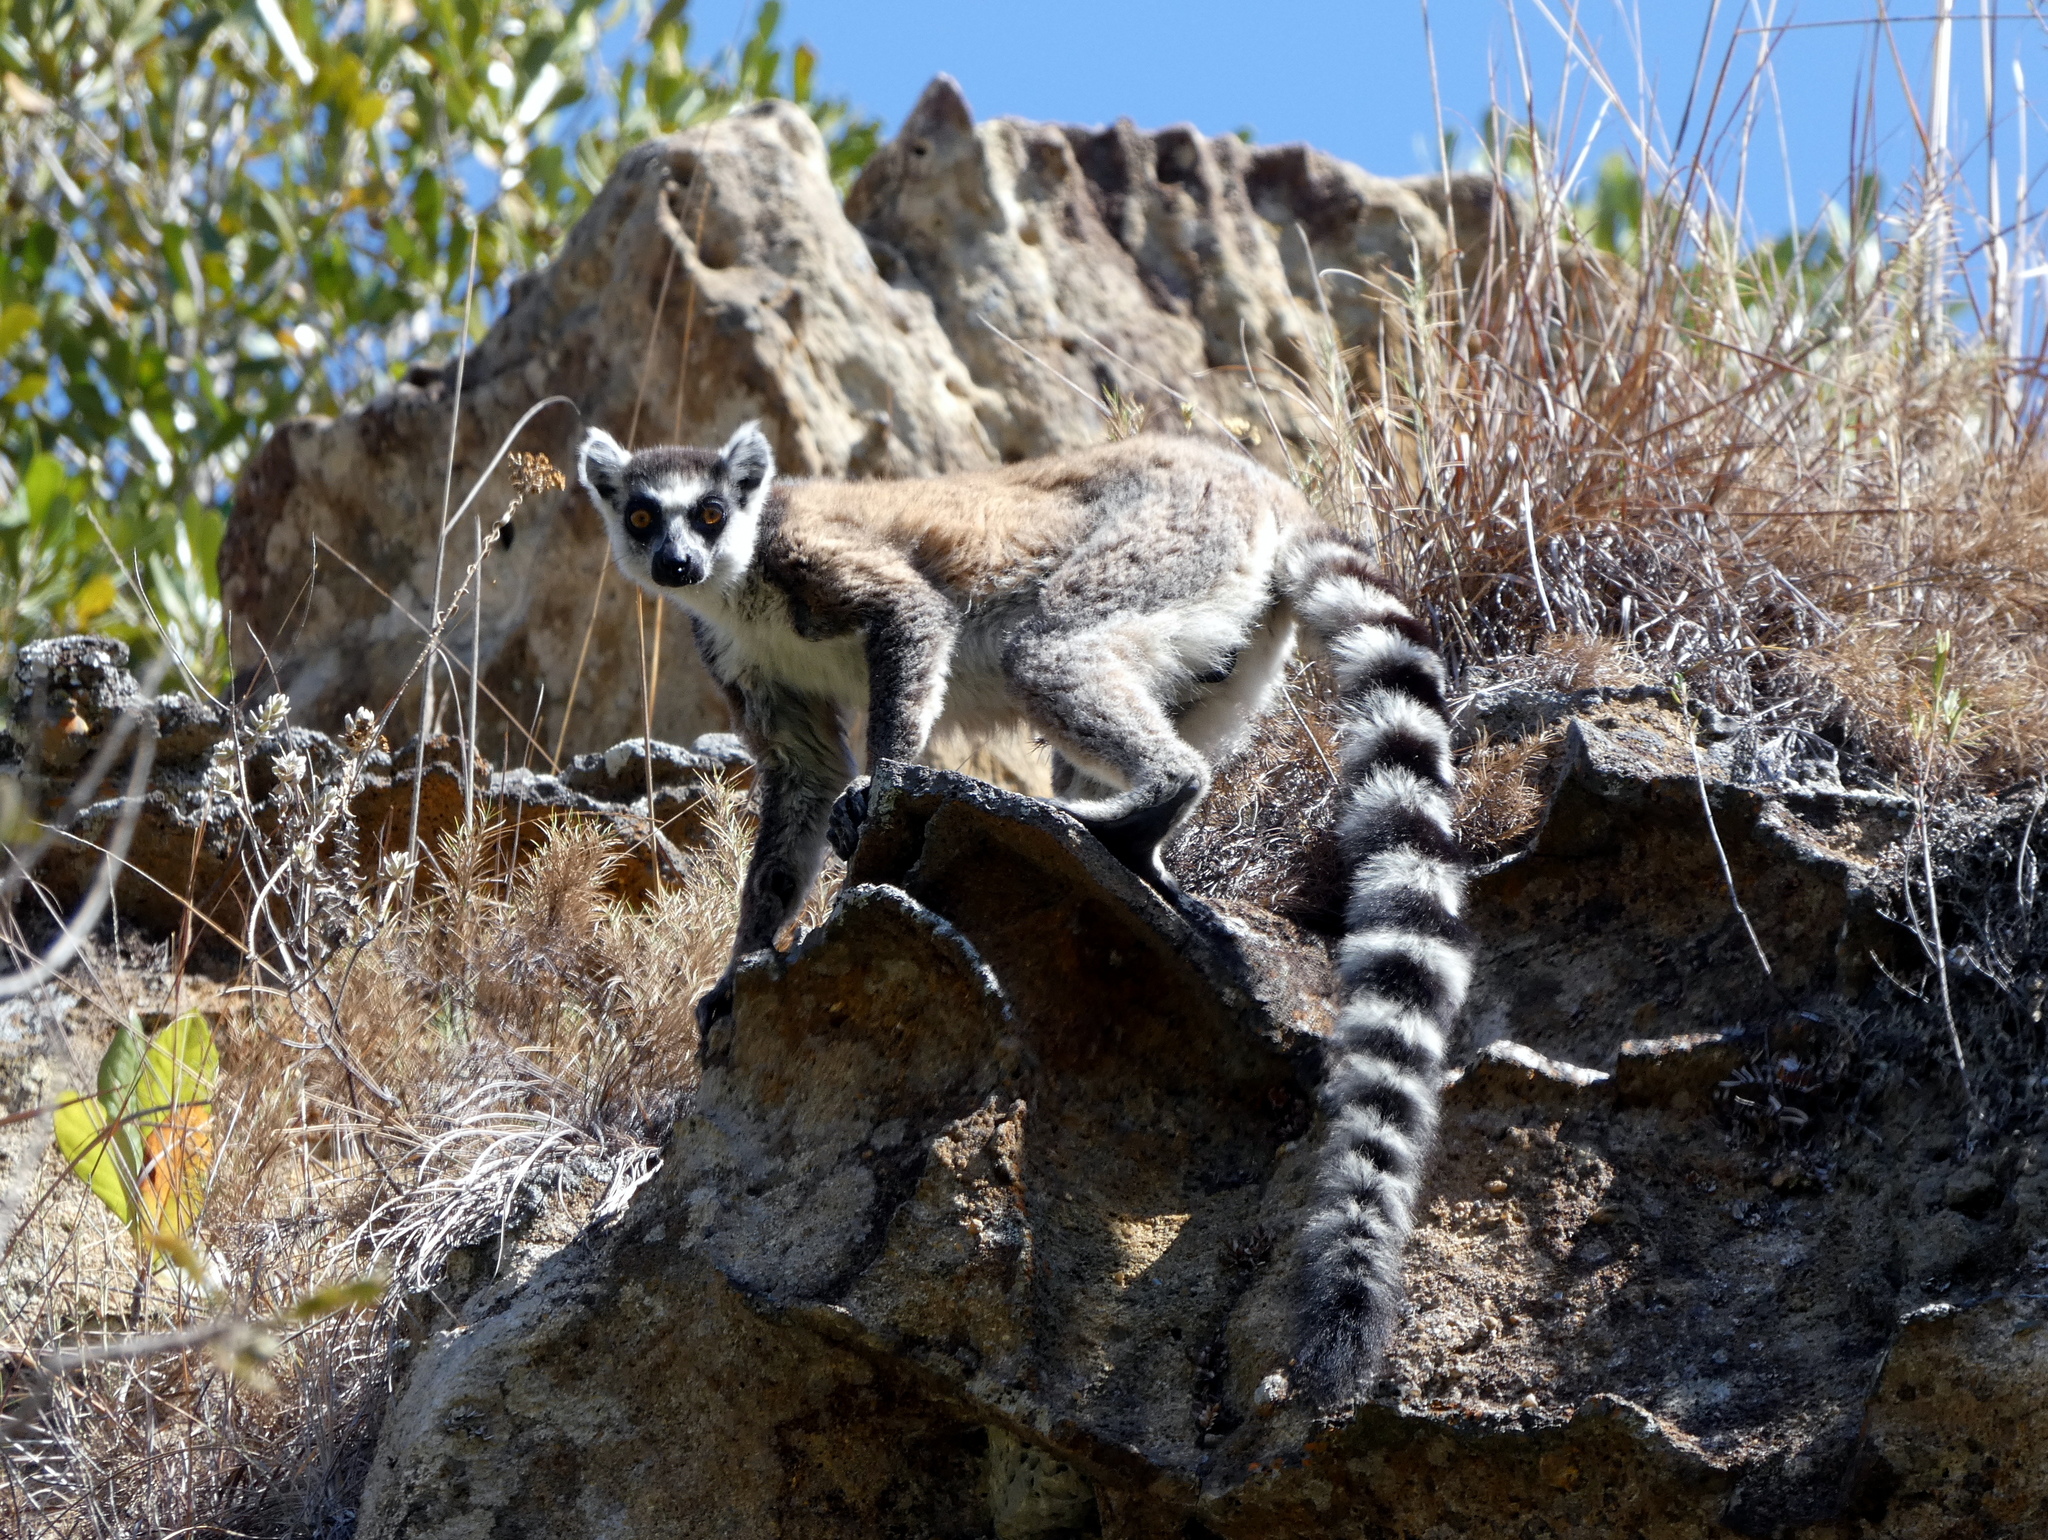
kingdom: Animalia
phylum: Chordata
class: Mammalia
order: Primates
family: Lemuridae
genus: Lemur
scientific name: Lemur catta
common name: Ring-tailed lemur
